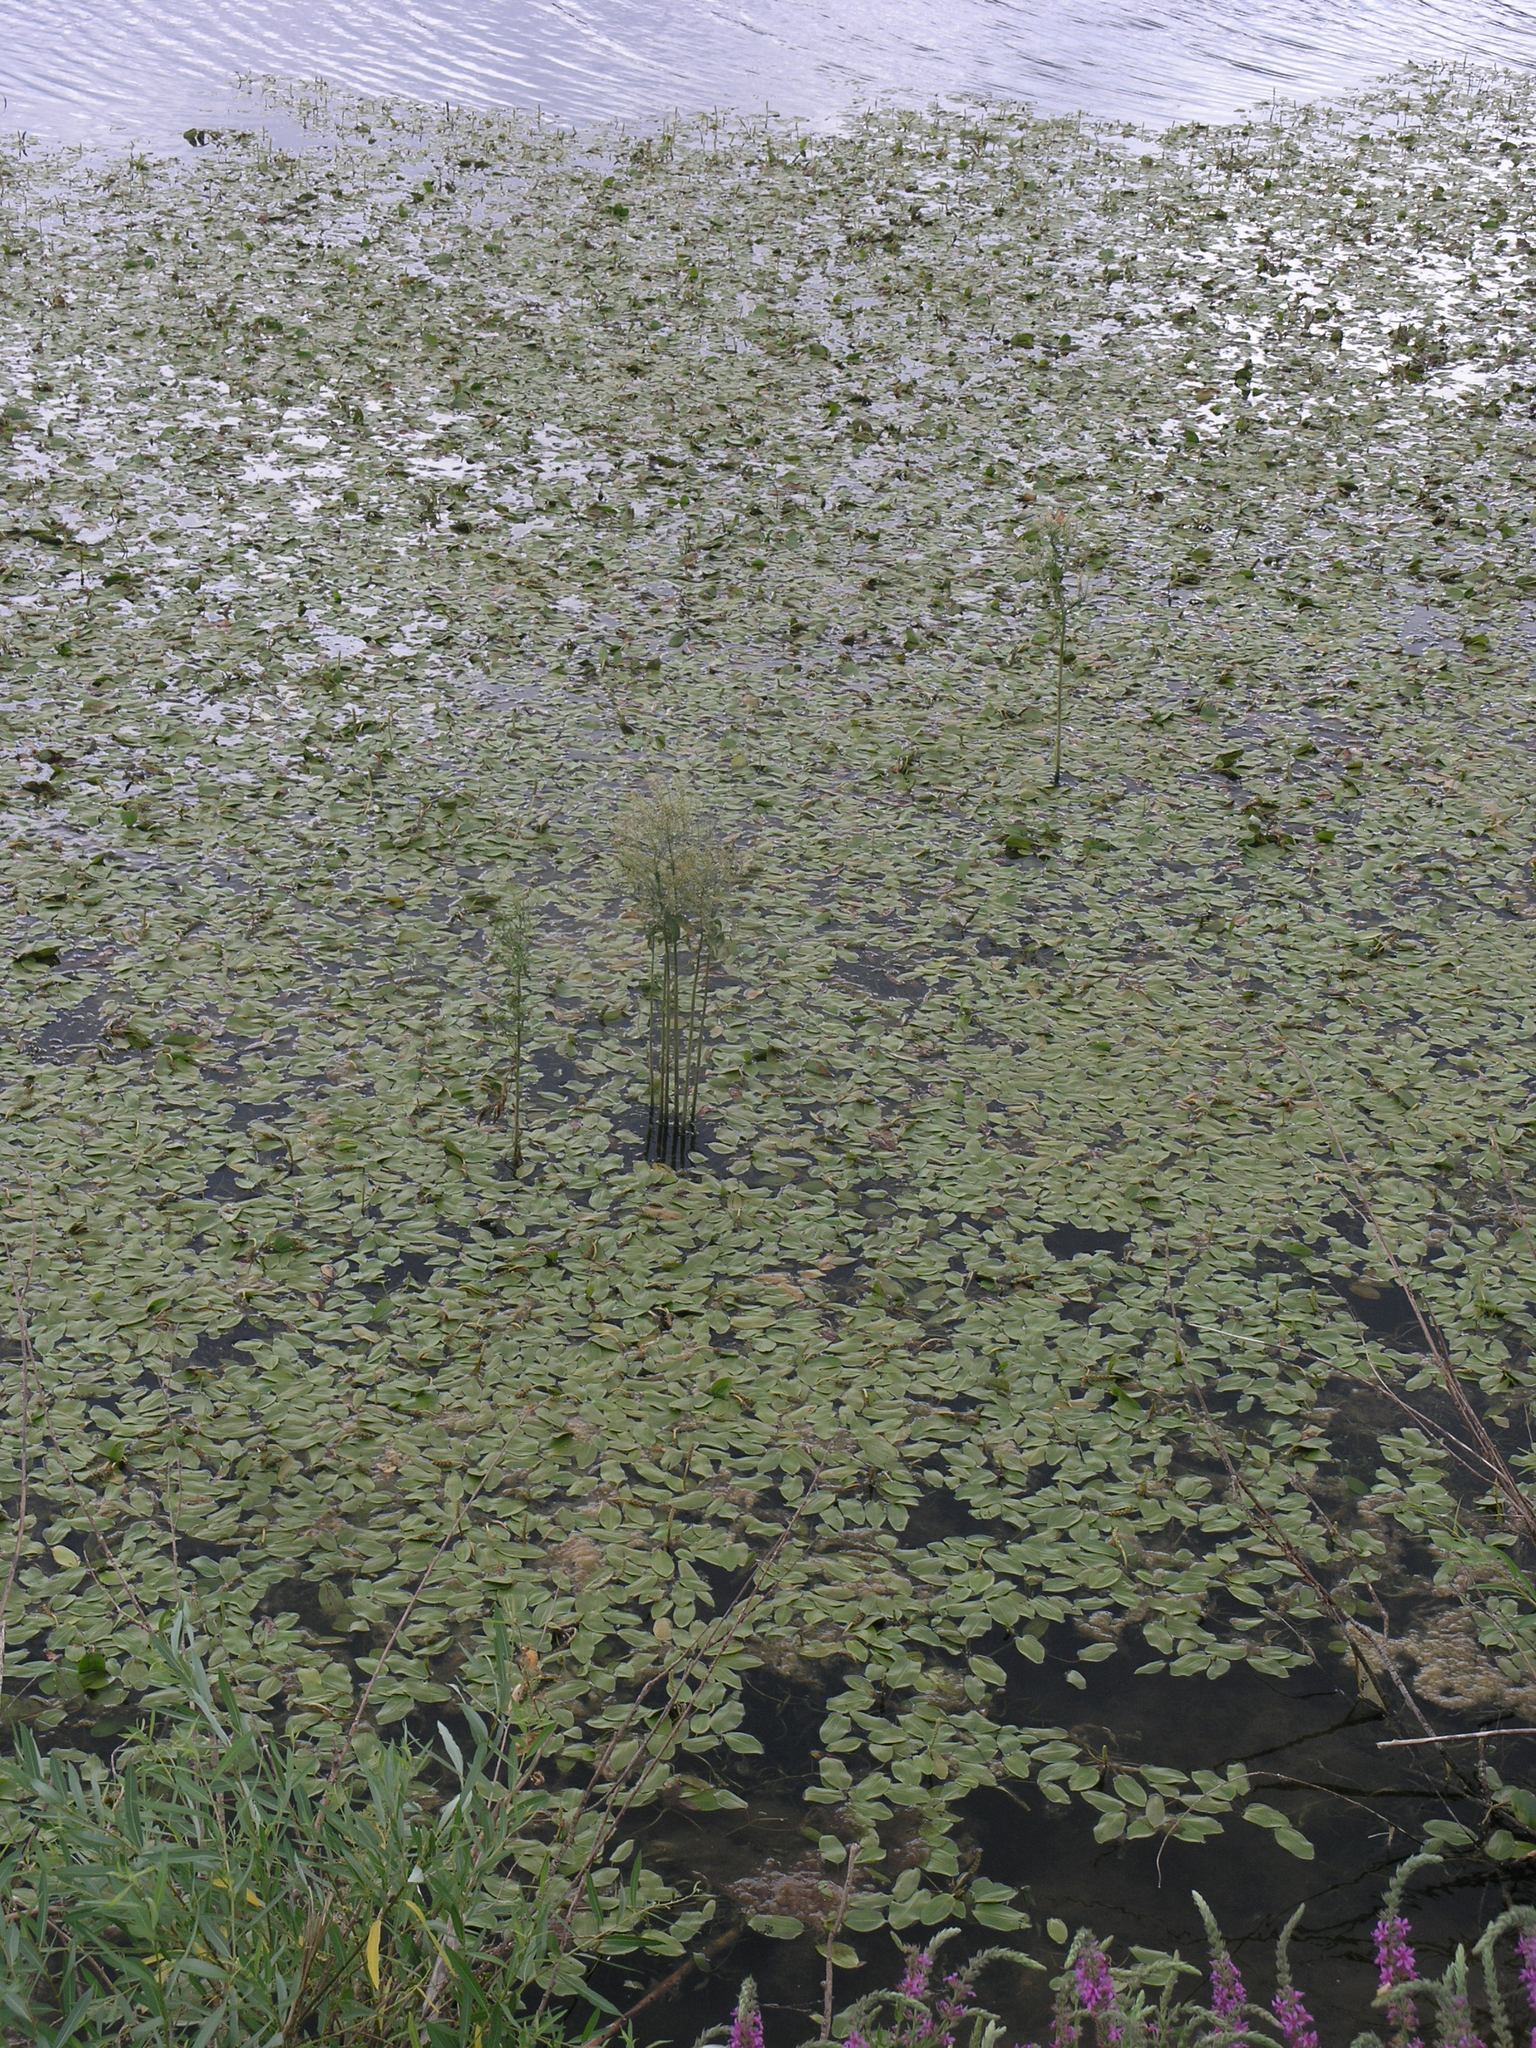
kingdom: Plantae
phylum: Tracheophyta
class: Liliopsida
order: Alismatales
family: Potamogetonaceae
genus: Potamogeton
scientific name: Potamogeton gramineus
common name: Various-leaved pondweed
